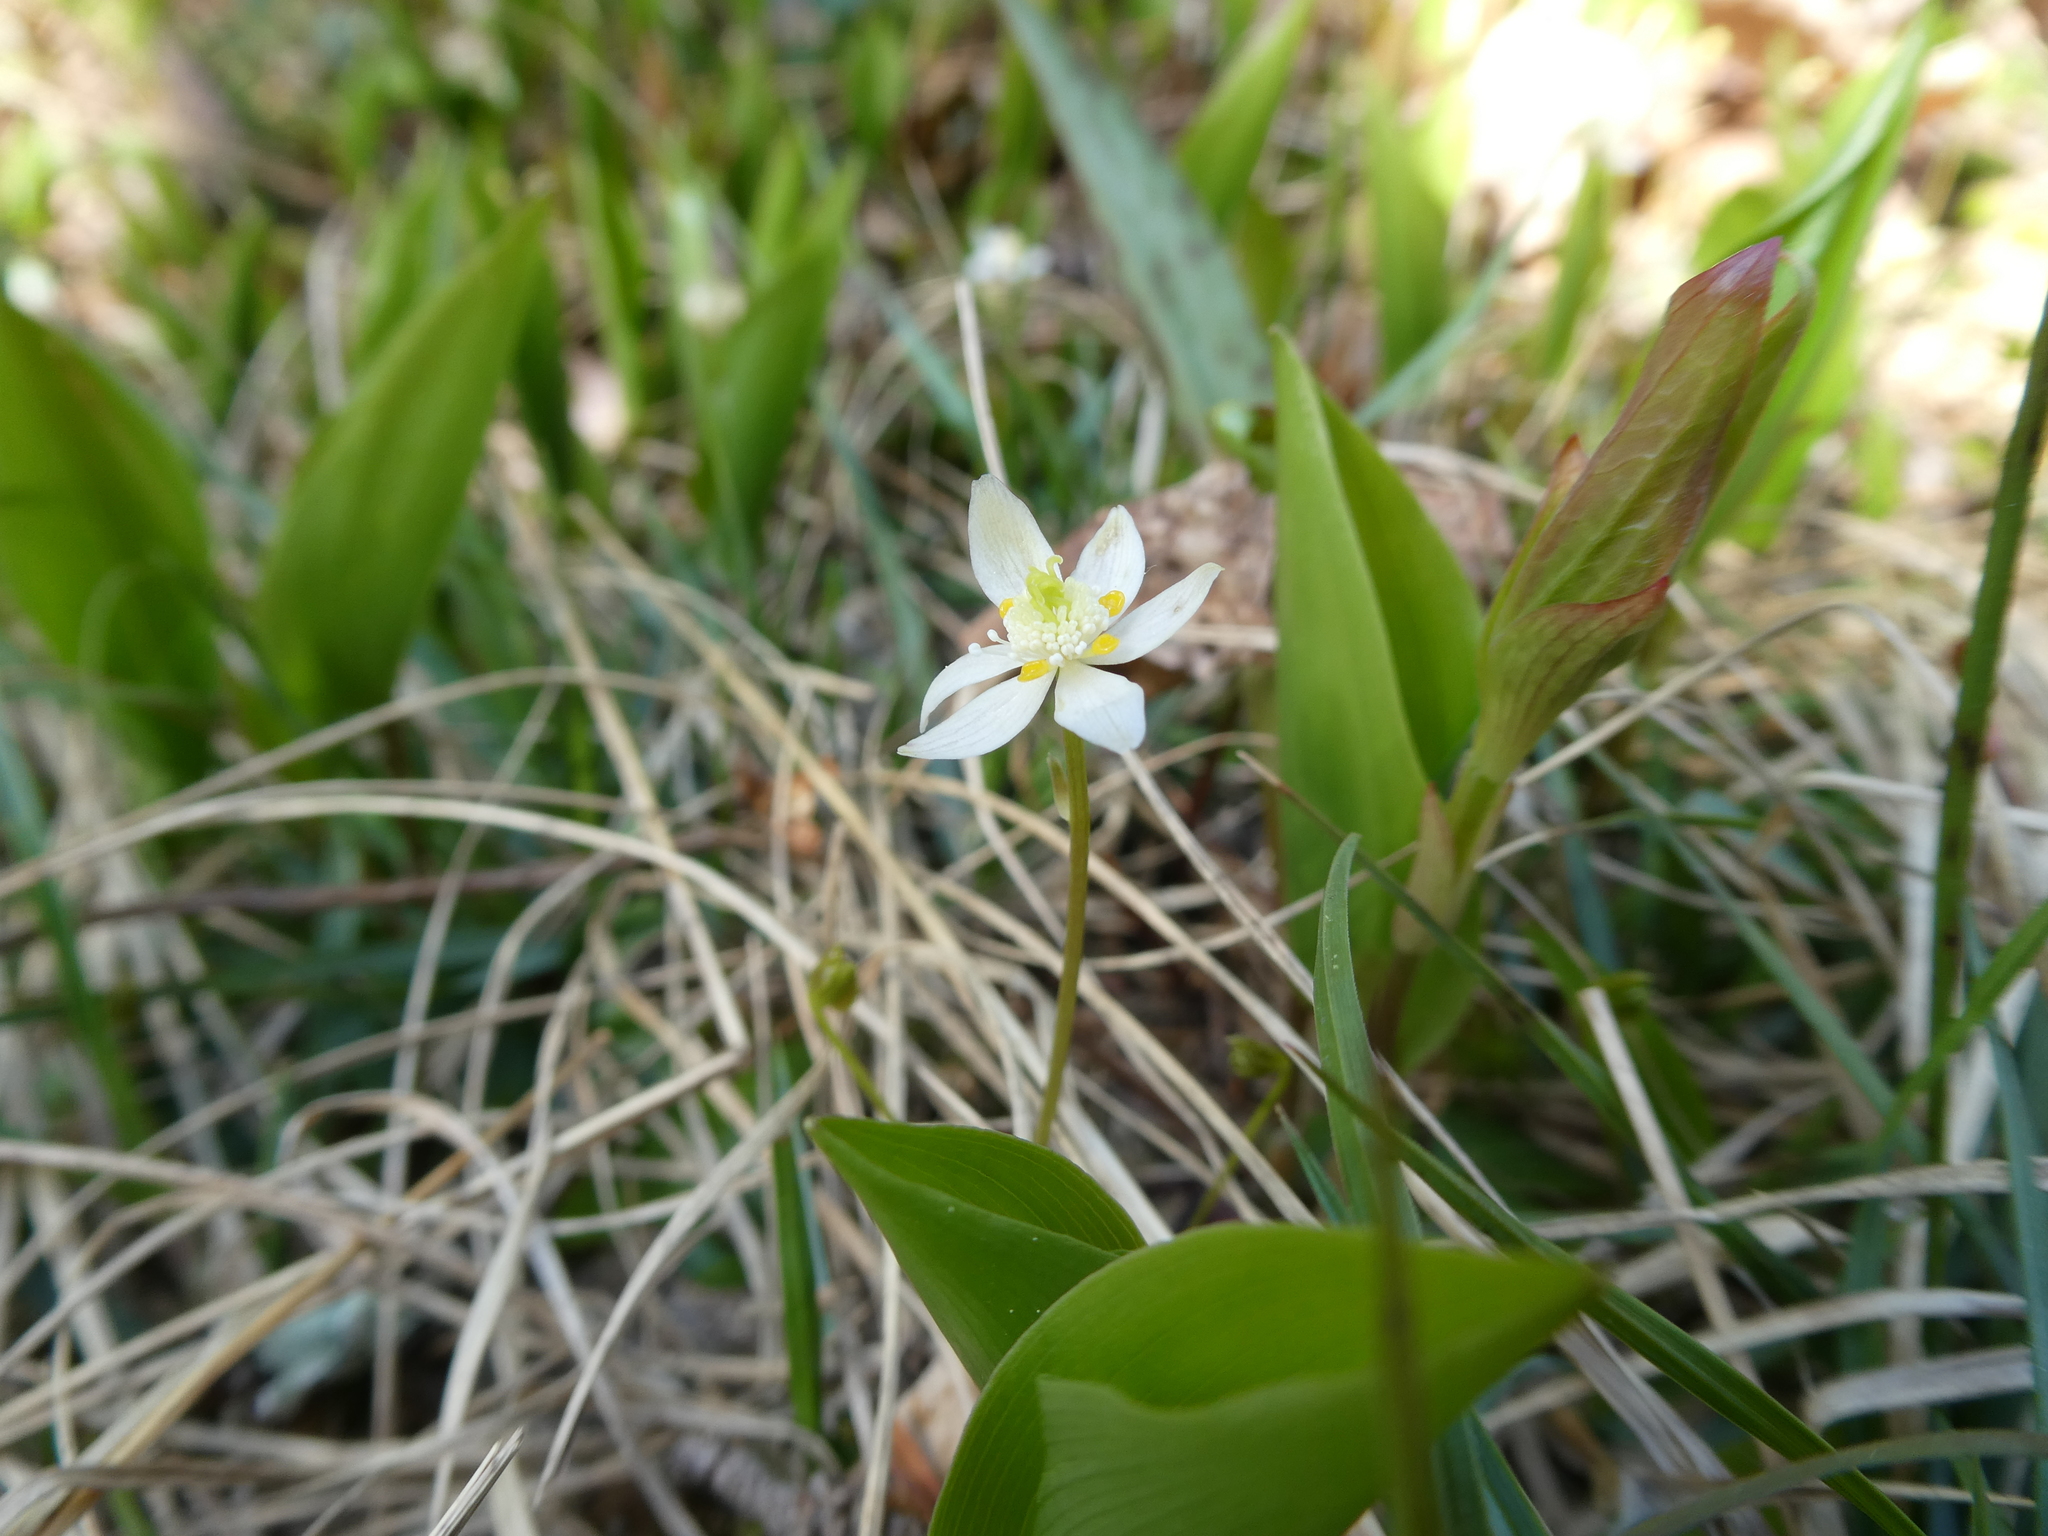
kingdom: Plantae
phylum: Tracheophyta
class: Magnoliopsida
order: Ranunculales
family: Ranunculaceae
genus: Coptis
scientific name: Coptis trifolia
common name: Canker-root
